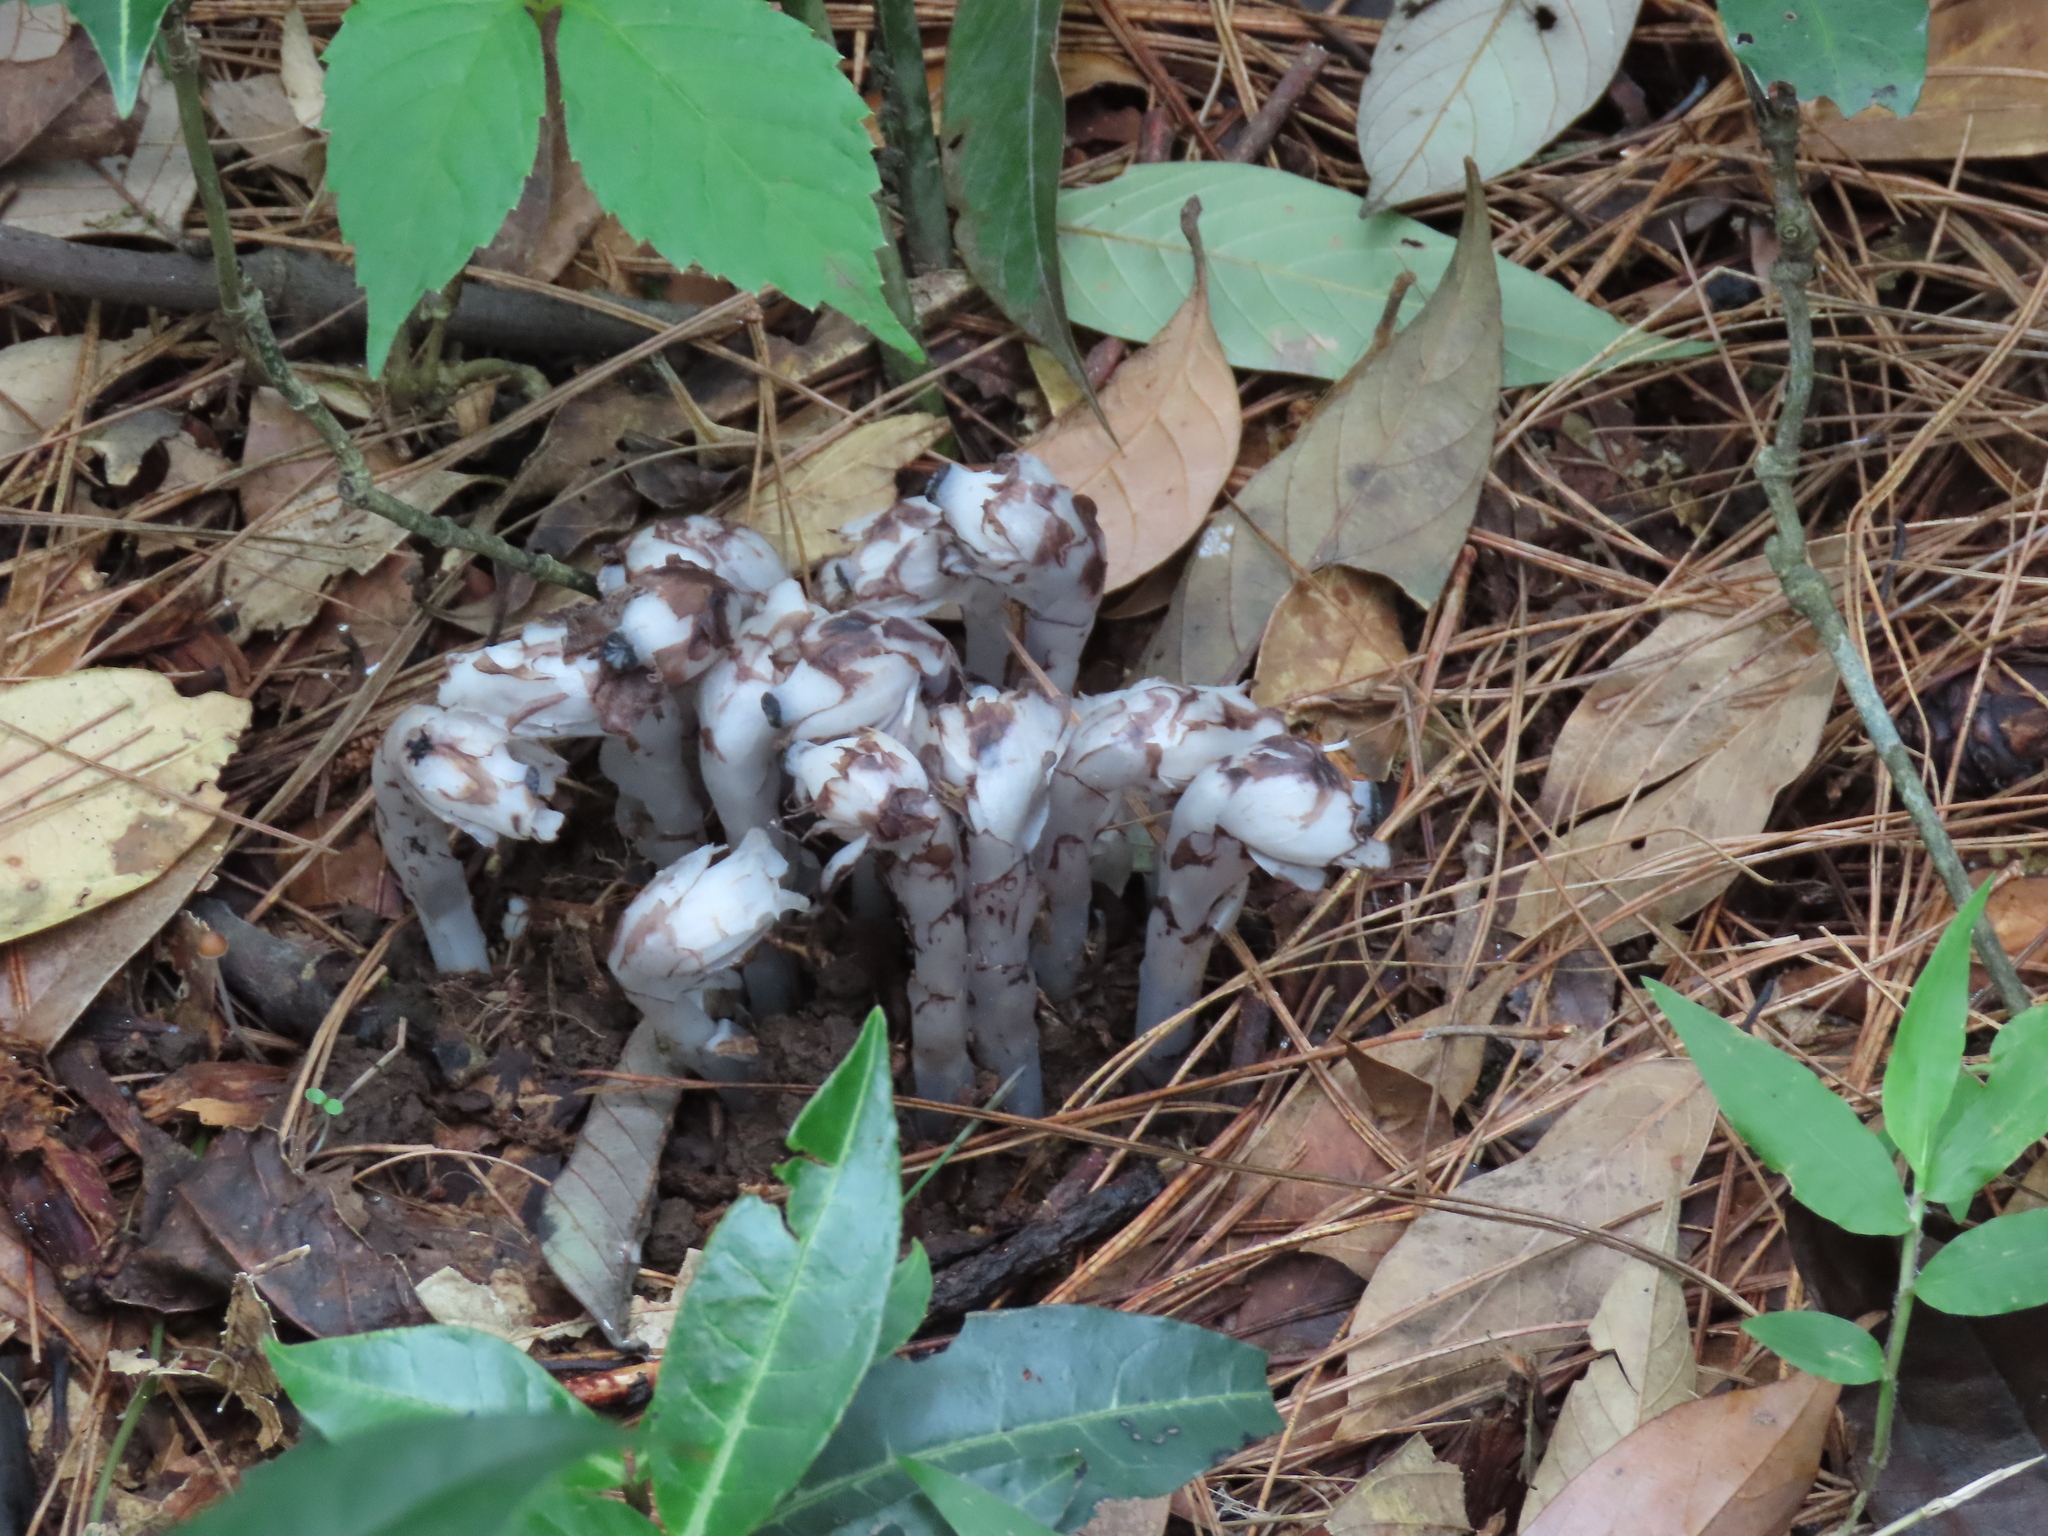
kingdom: Plantae
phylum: Tracheophyta
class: Magnoliopsida
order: Ericales
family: Ericaceae
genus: Monotropa
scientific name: Monotropa uniflora
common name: Convulsion root
